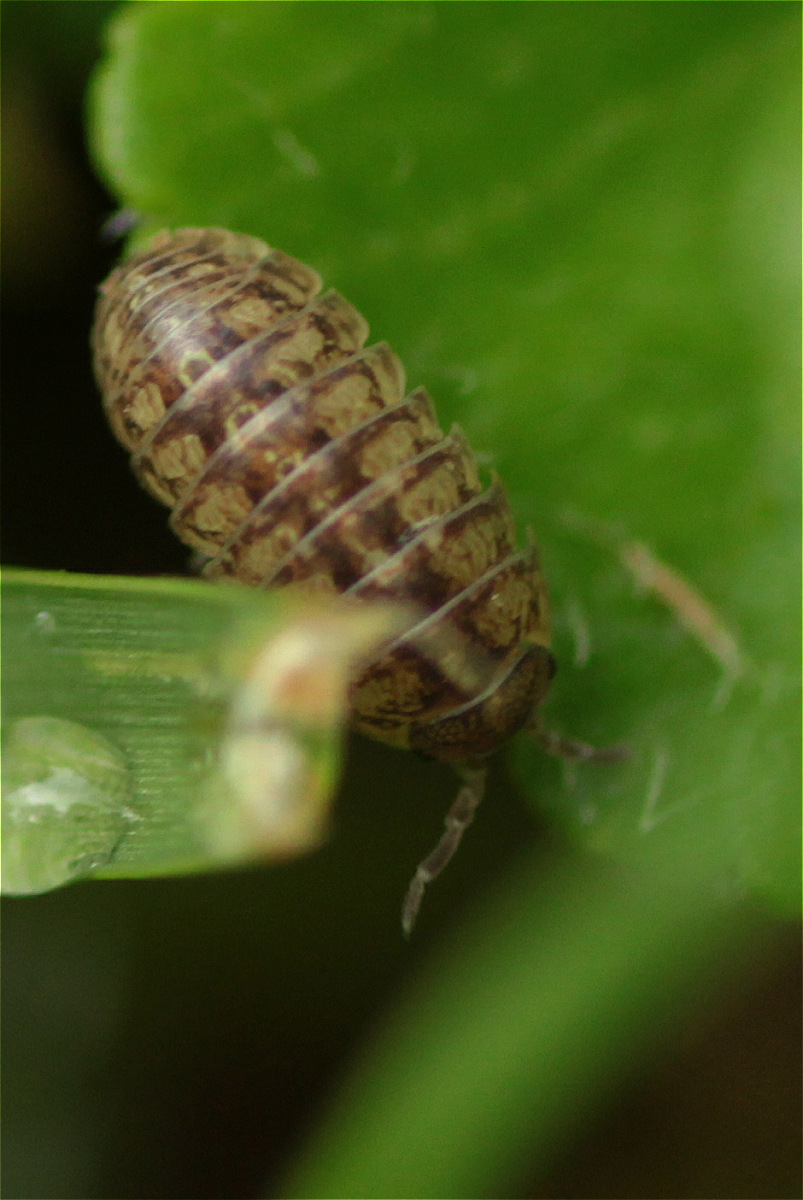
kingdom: Animalia
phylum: Arthropoda
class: Malacostraca
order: Isopoda
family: Armadillidiidae
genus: Armadillidium
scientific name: Armadillidium vulgare
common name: Common pill woodlouse
